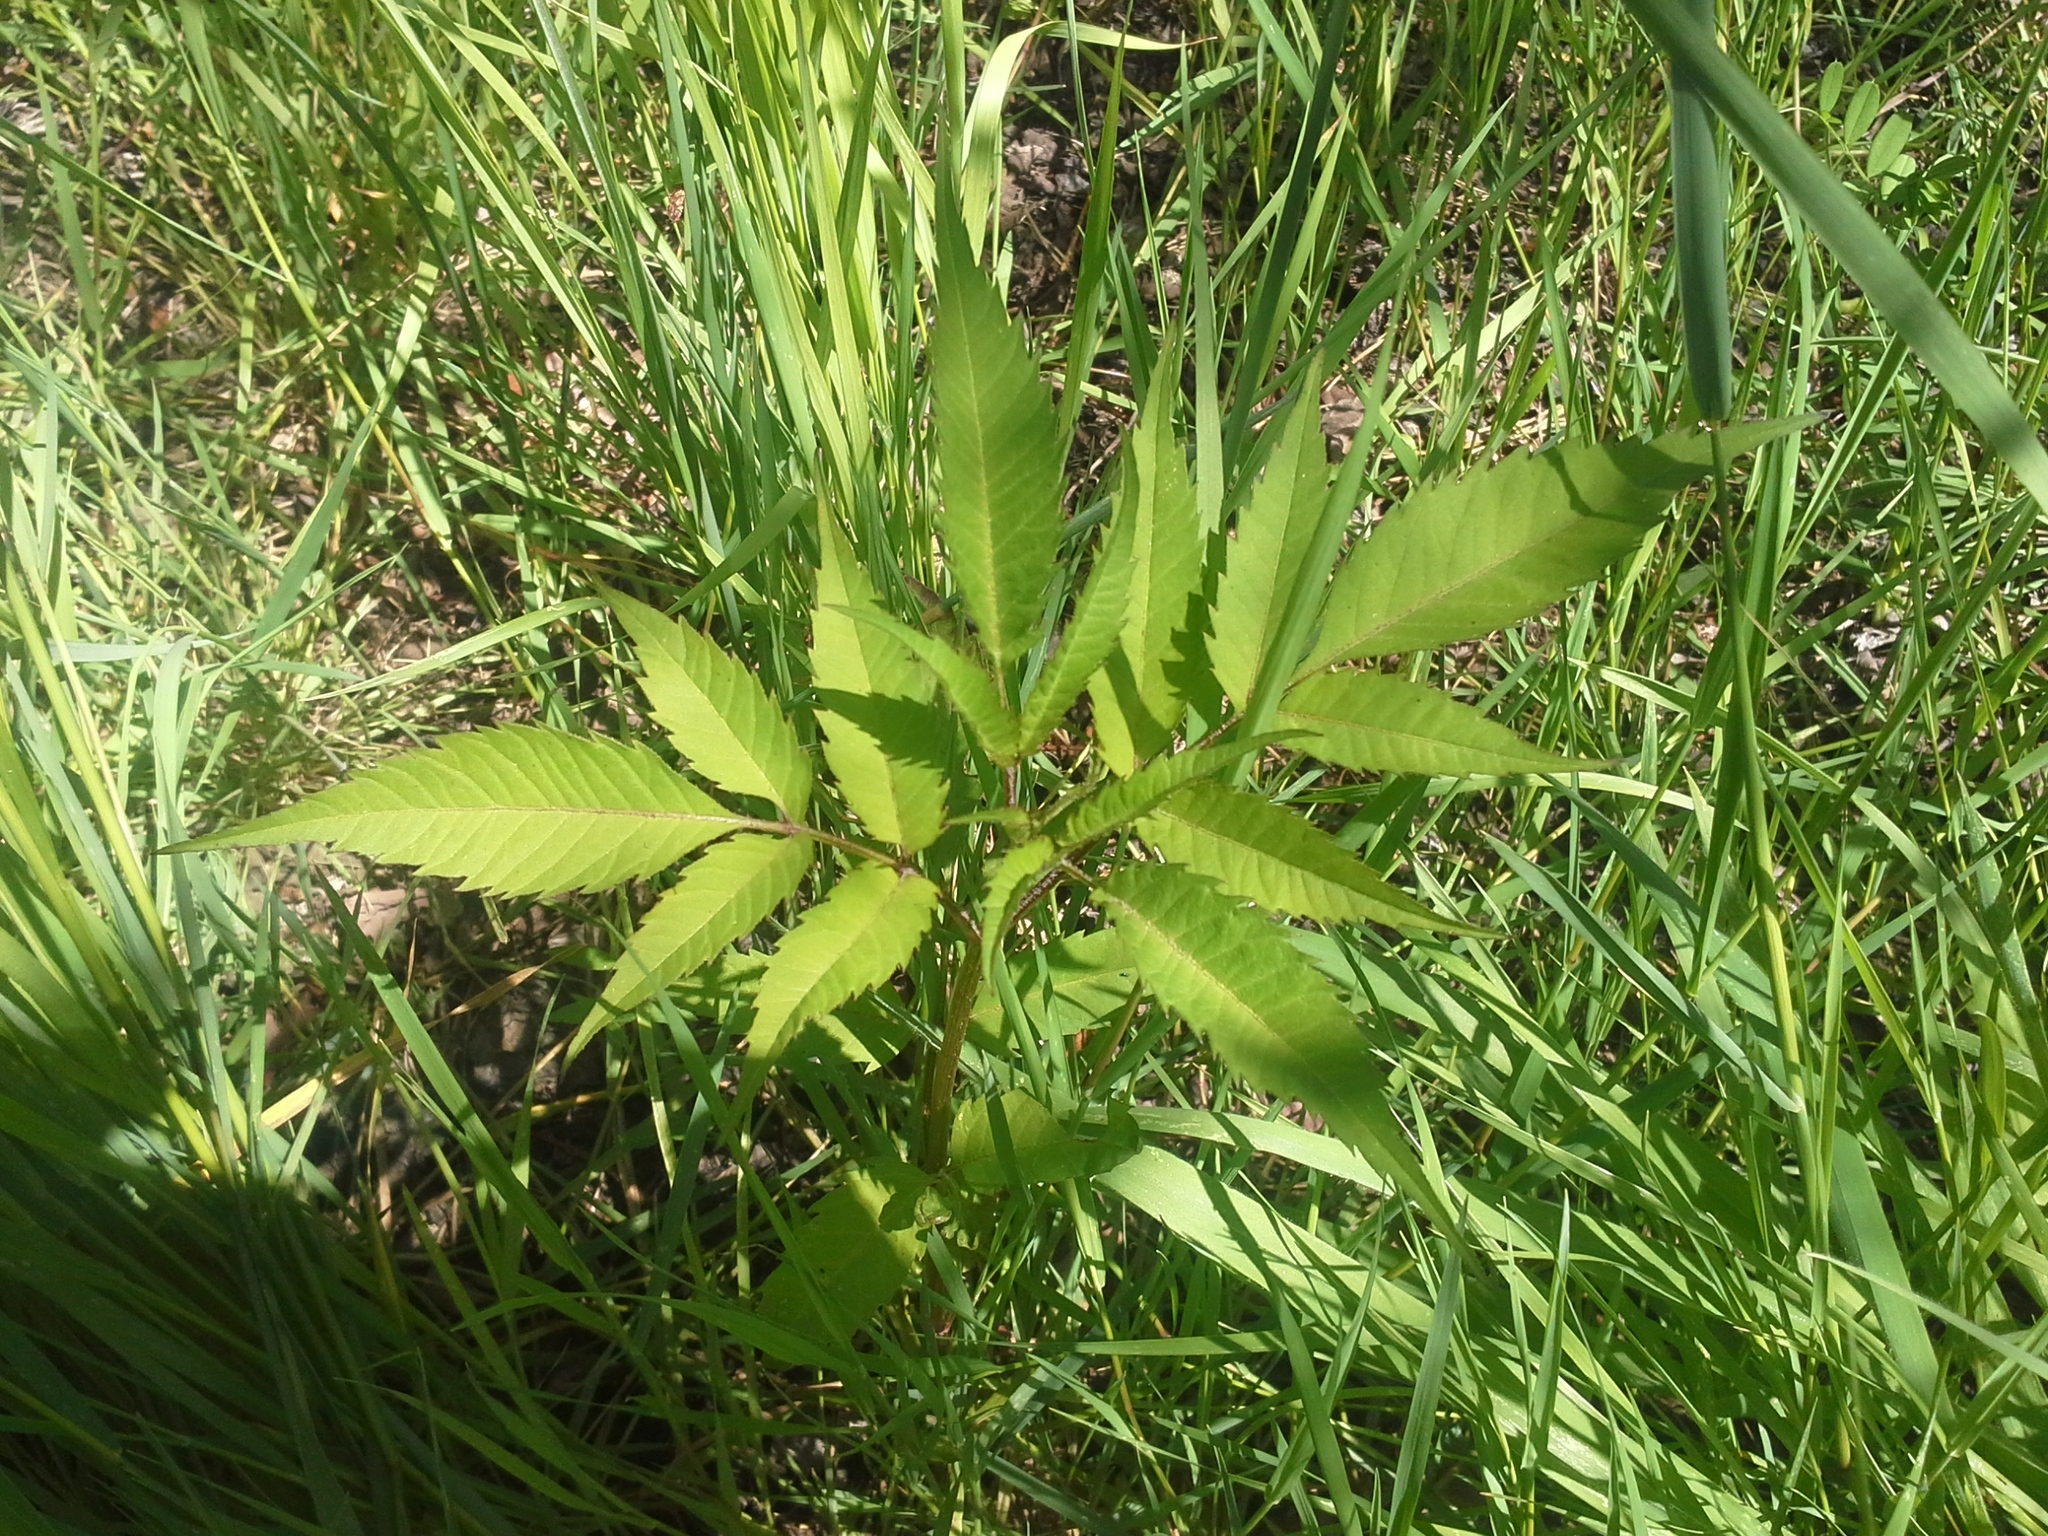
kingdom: Plantae
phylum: Tracheophyta
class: Magnoliopsida
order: Asterales
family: Asteraceae
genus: Bidens
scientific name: Bidens frondosa
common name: Beggarticks
